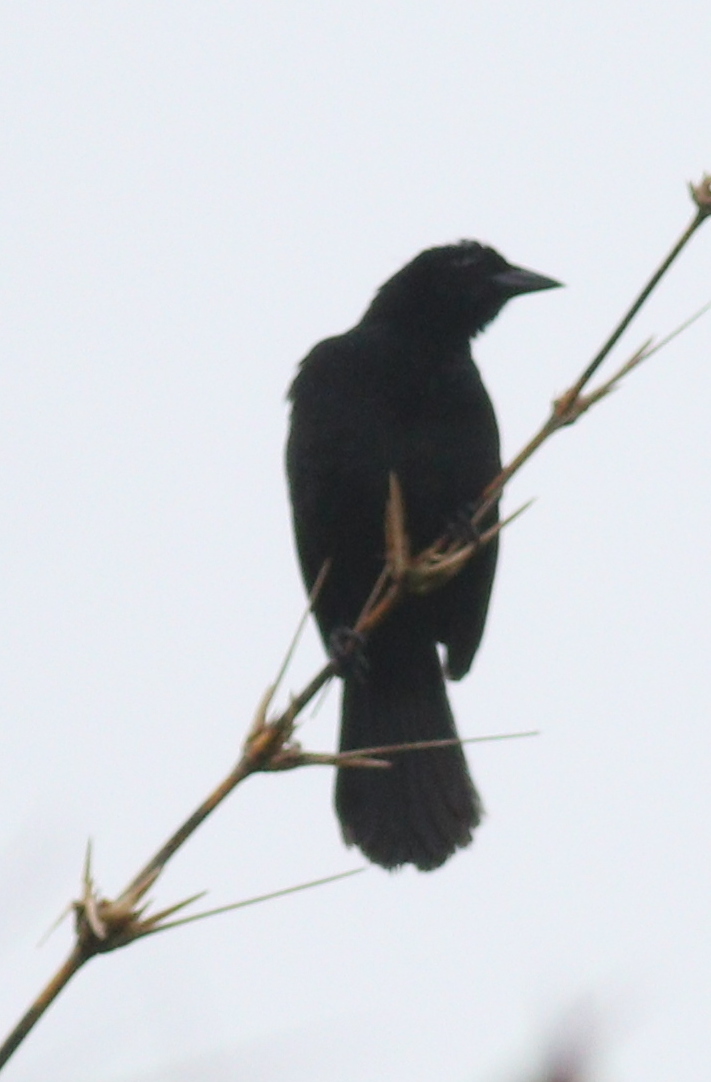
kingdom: Animalia
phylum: Chordata
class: Aves
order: Passeriformes
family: Icteridae
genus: Dives
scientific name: Dives dives
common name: Melodious blackbird
